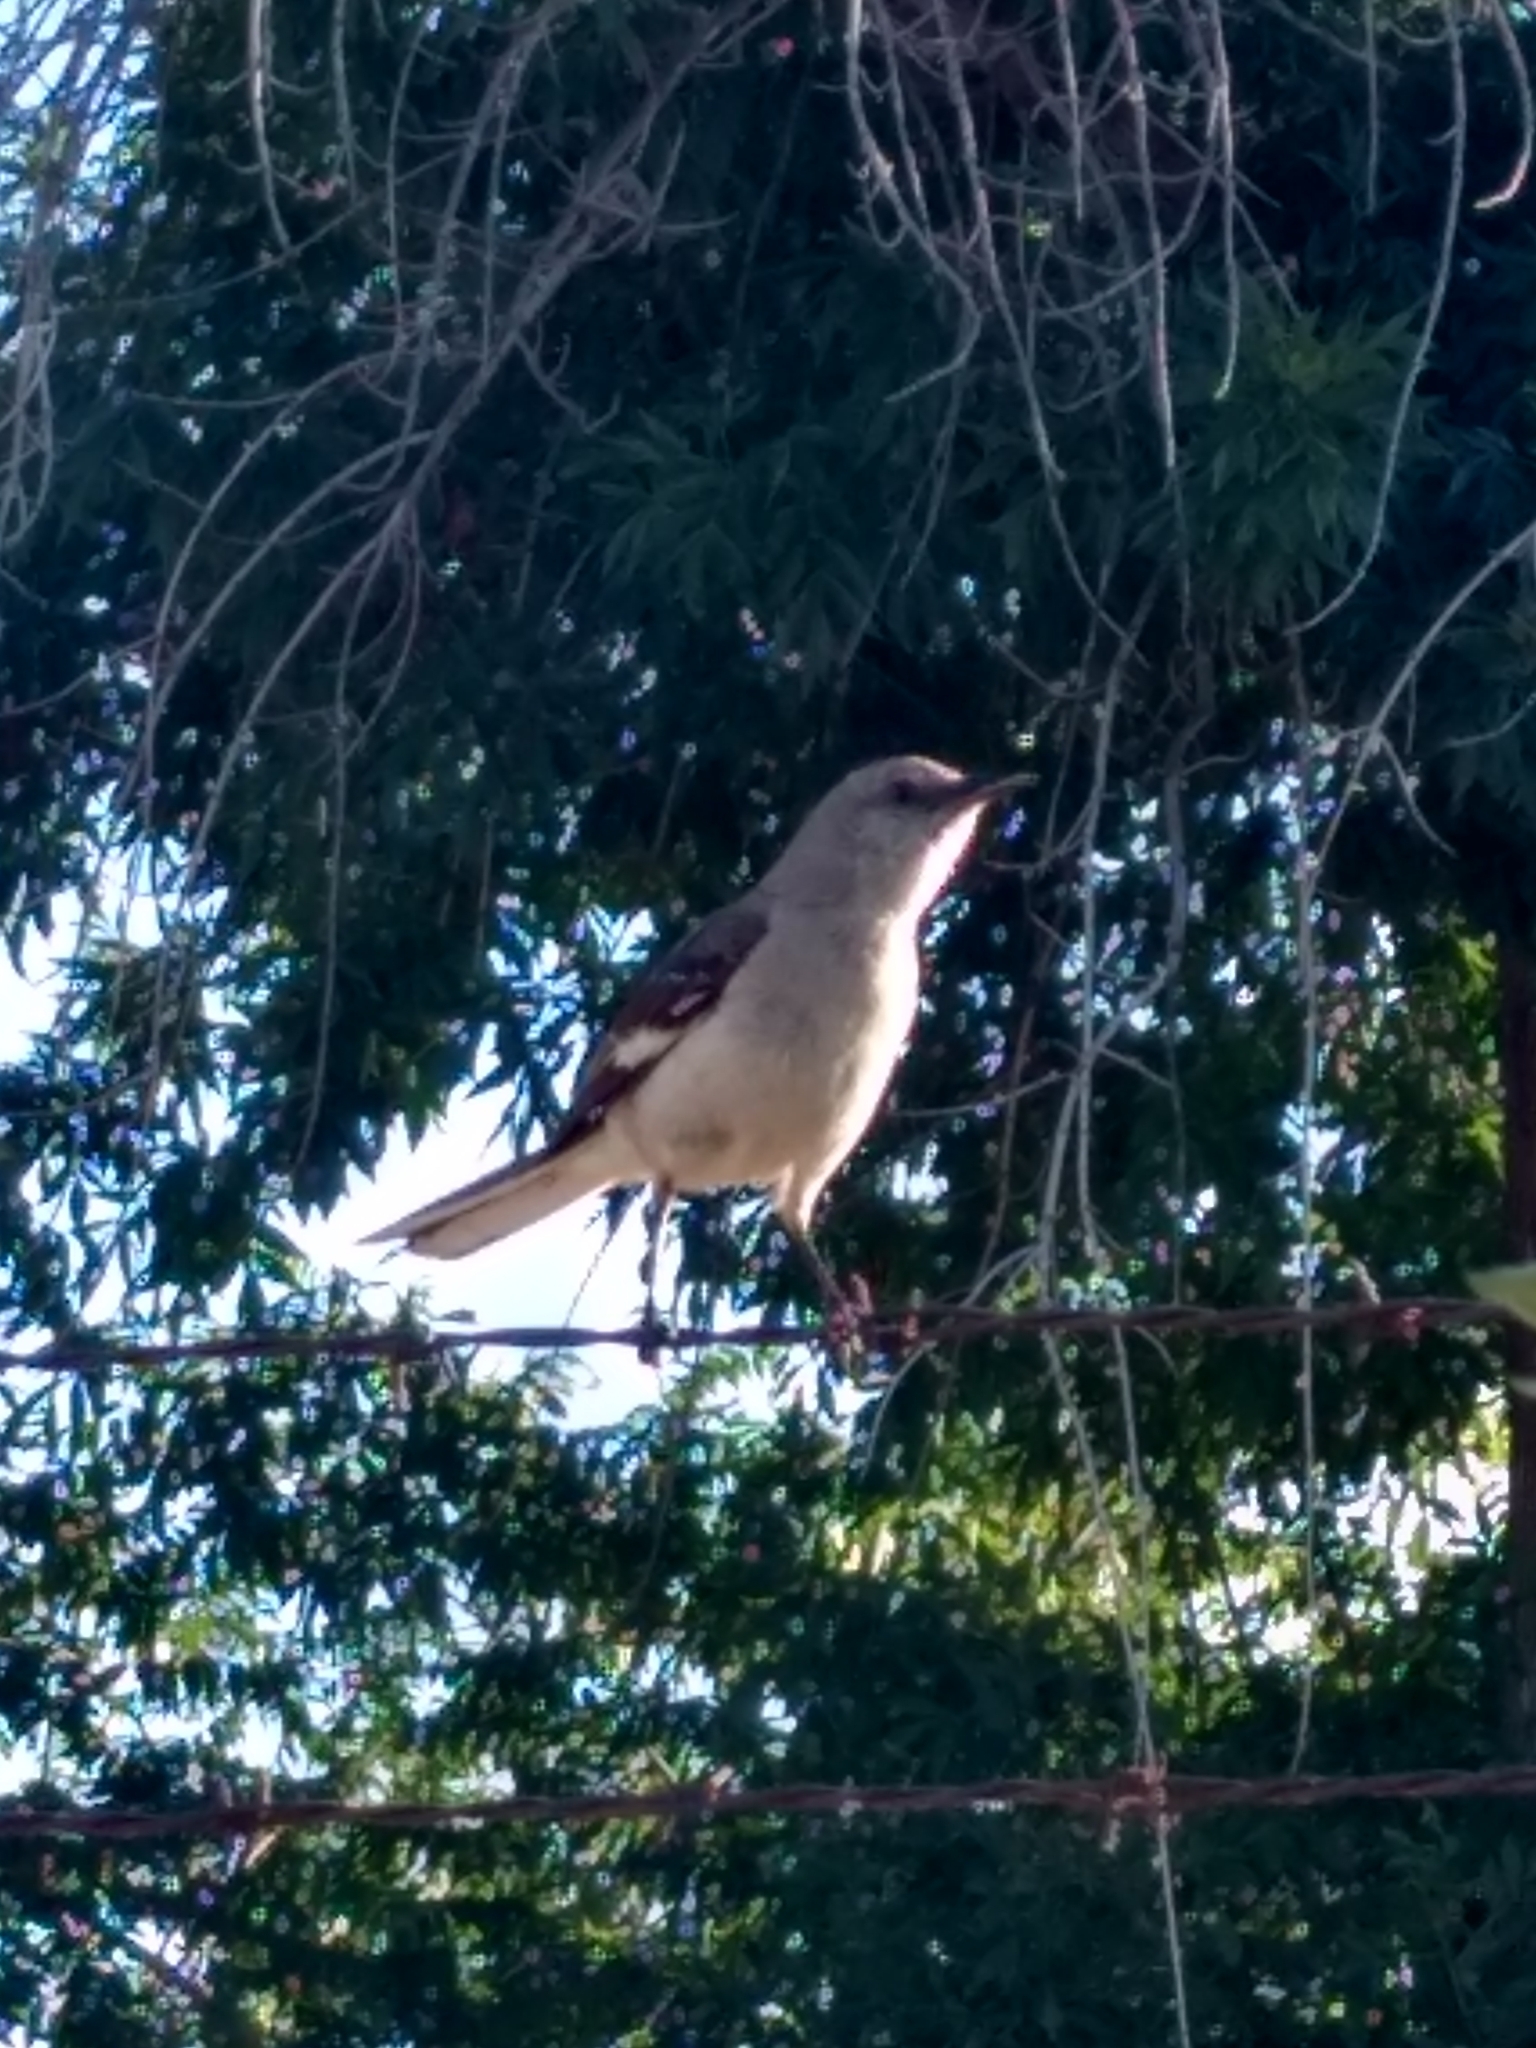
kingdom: Animalia
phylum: Chordata
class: Aves
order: Passeriformes
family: Mimidae
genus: Mimus
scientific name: Mimus polyglottos
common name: Northern mockingbird
